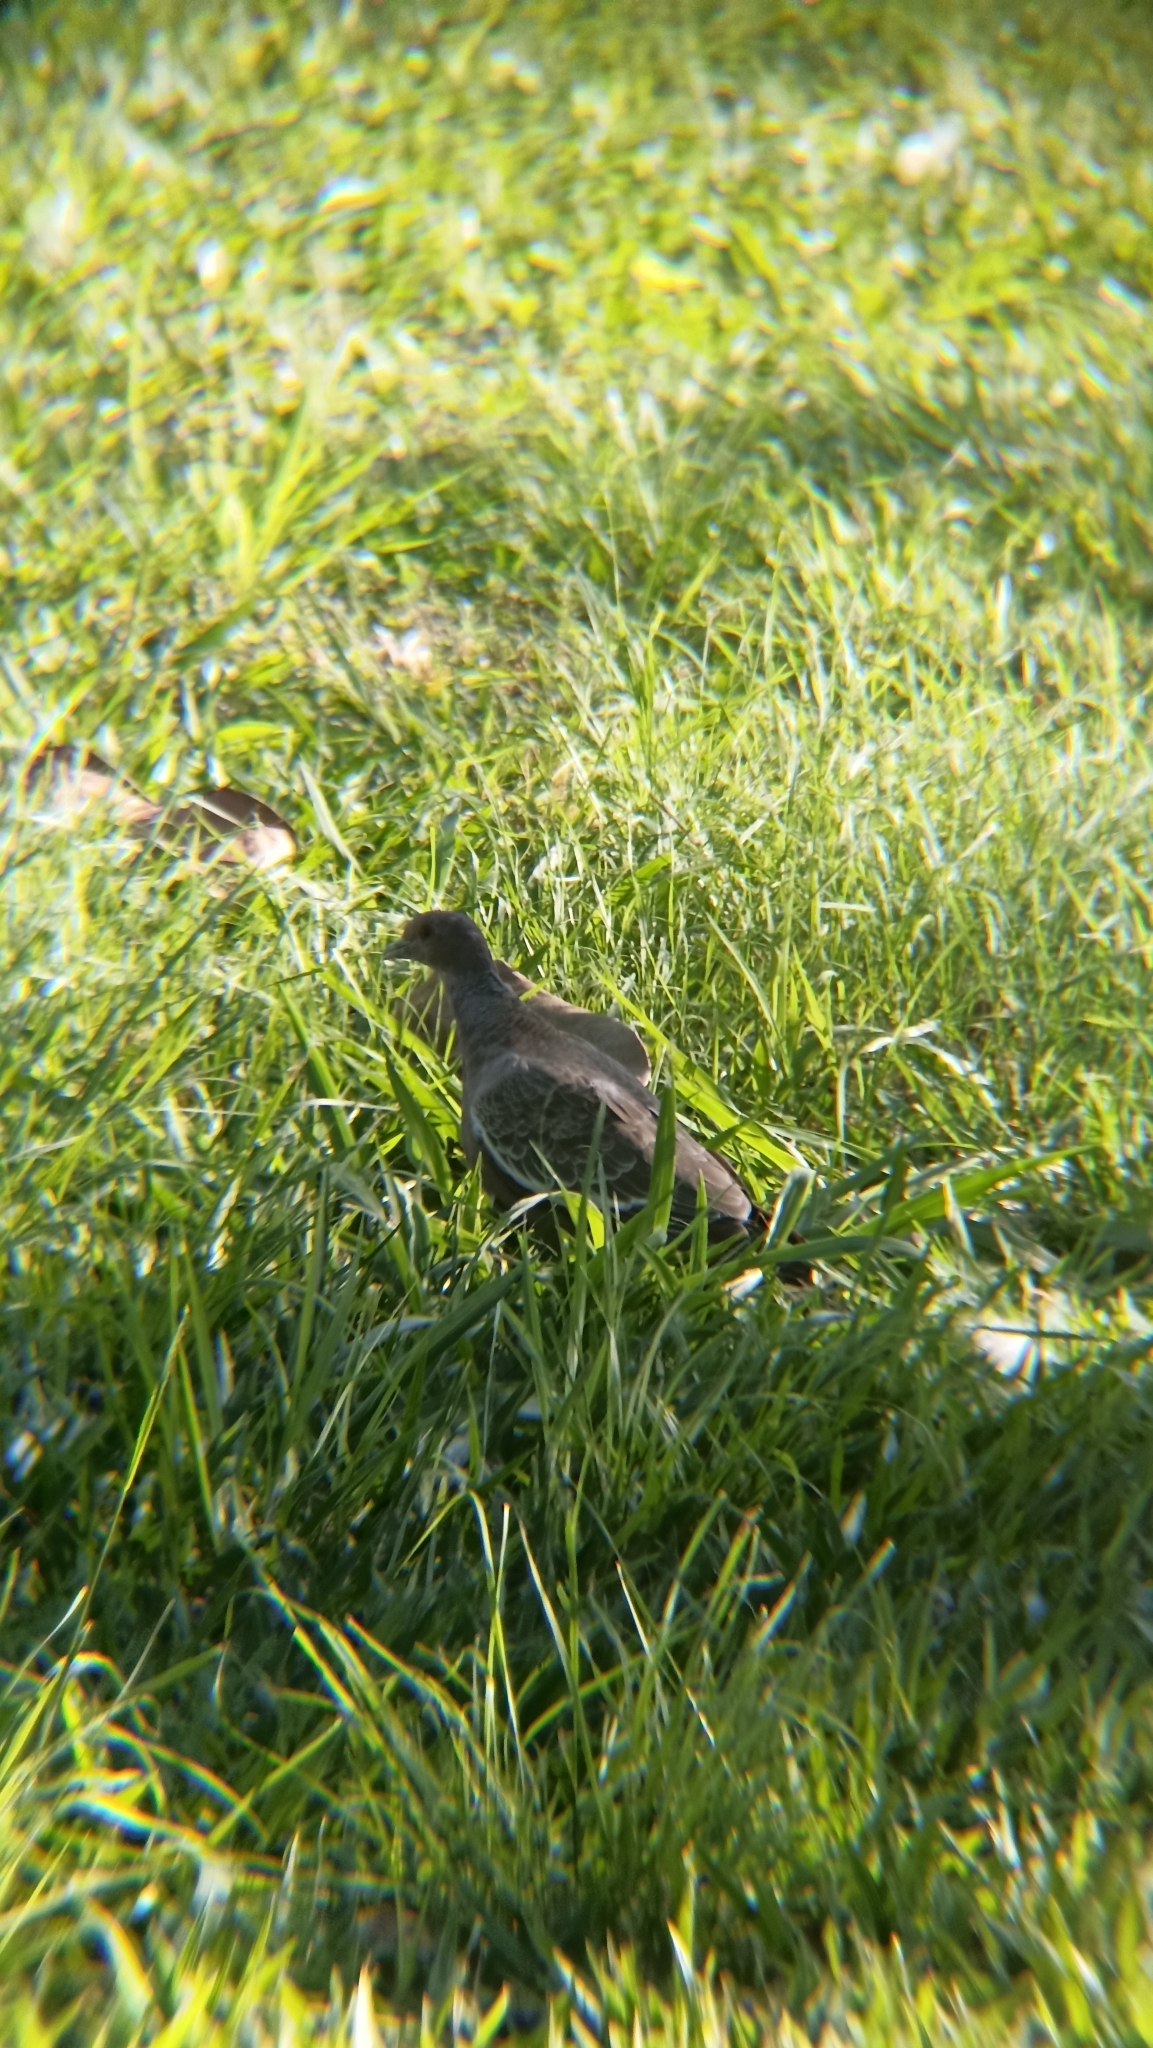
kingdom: Animalia
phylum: Chordata
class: Aves
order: Columbiformes
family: Columbidae
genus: Patagioenas
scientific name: Patagioenas picazuro
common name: Picazuro pigeon
